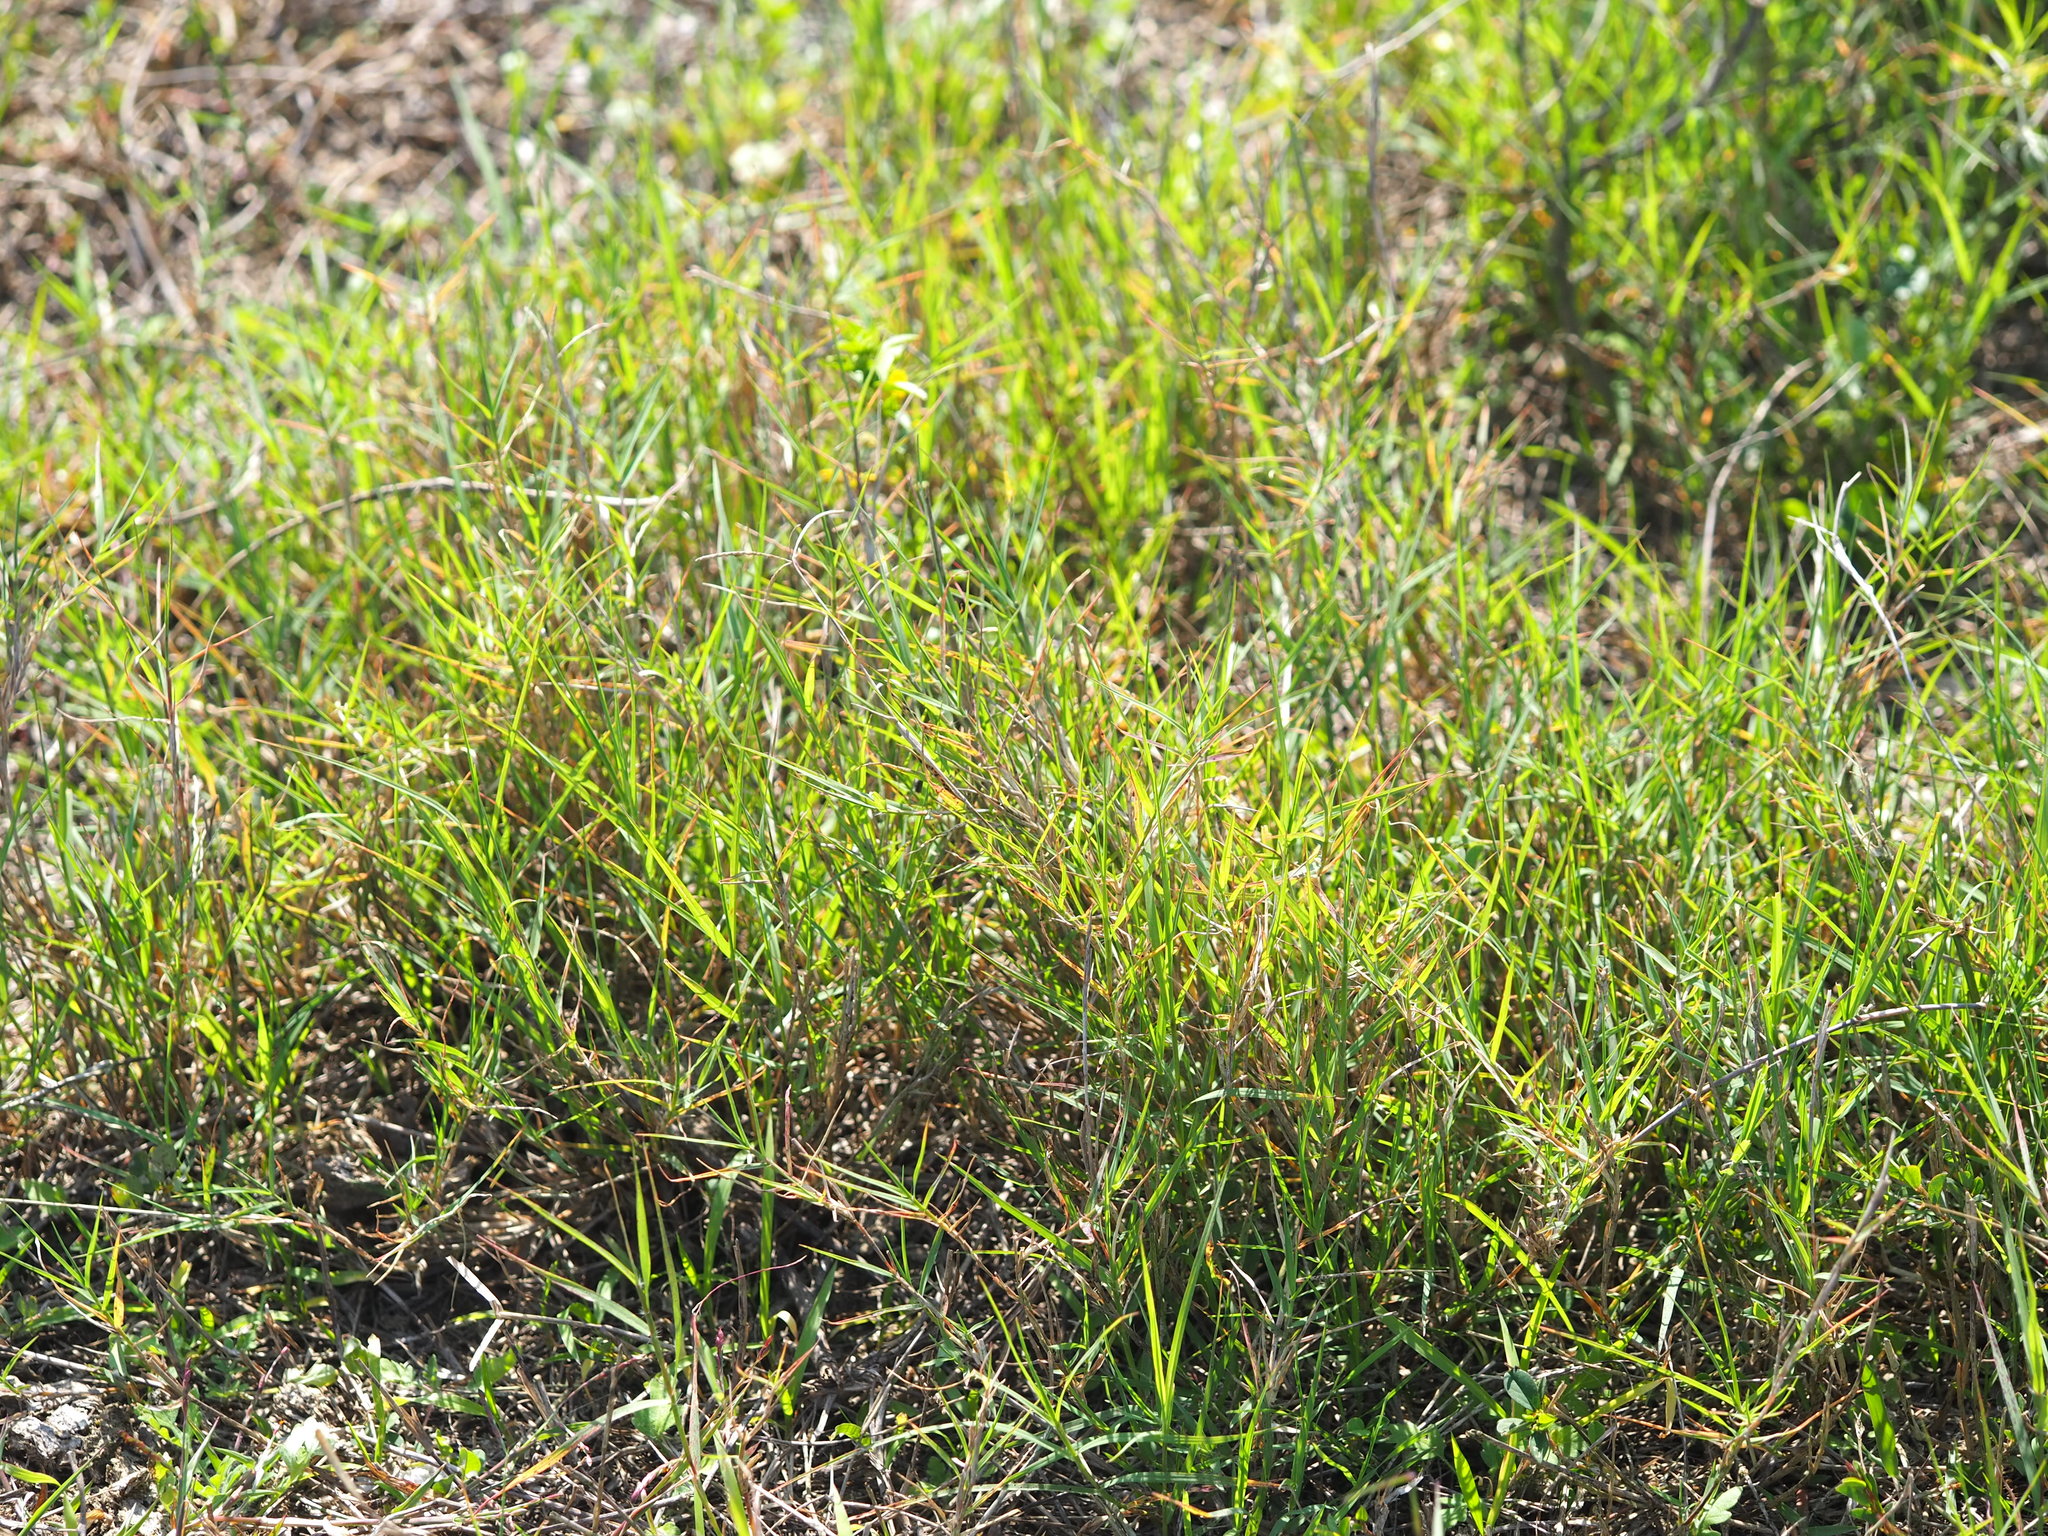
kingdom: Plantae
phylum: Tracheophyta
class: Liliopsida
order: Poales
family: Poaceae
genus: Cynodon
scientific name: Cynodon dactylon
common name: Bermuda grass
